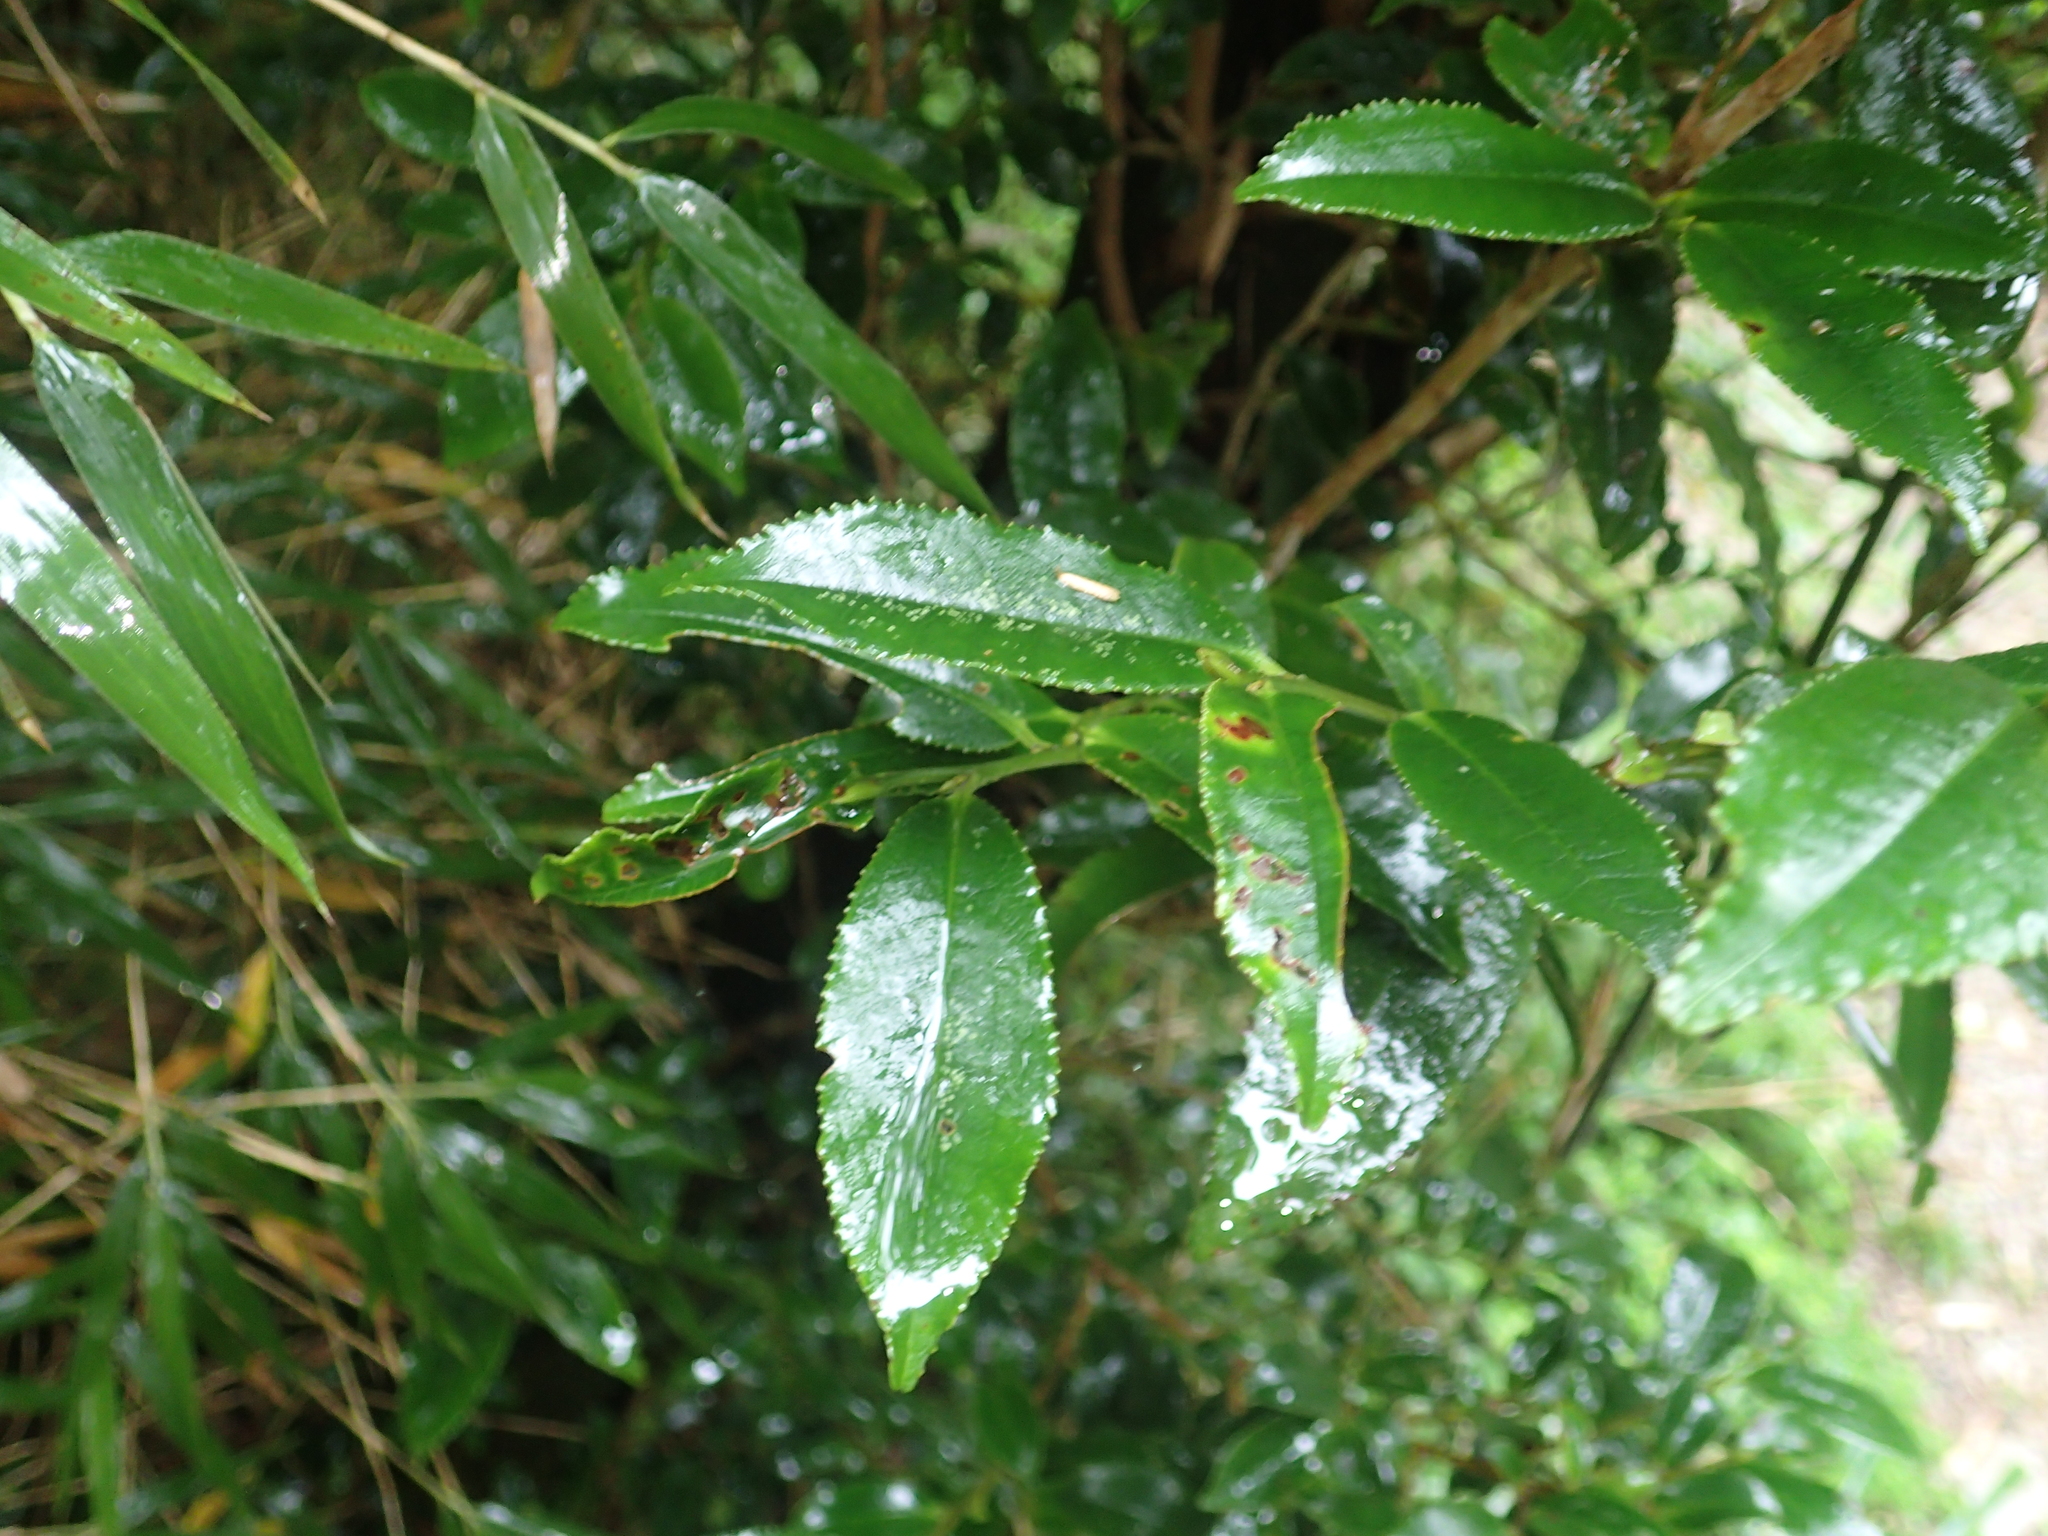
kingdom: Plantae
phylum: Tracheophyta
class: Magnoliopsida
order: Ericales
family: Pentaphylacaceae
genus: Eurya
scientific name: Eurya glaberrima
